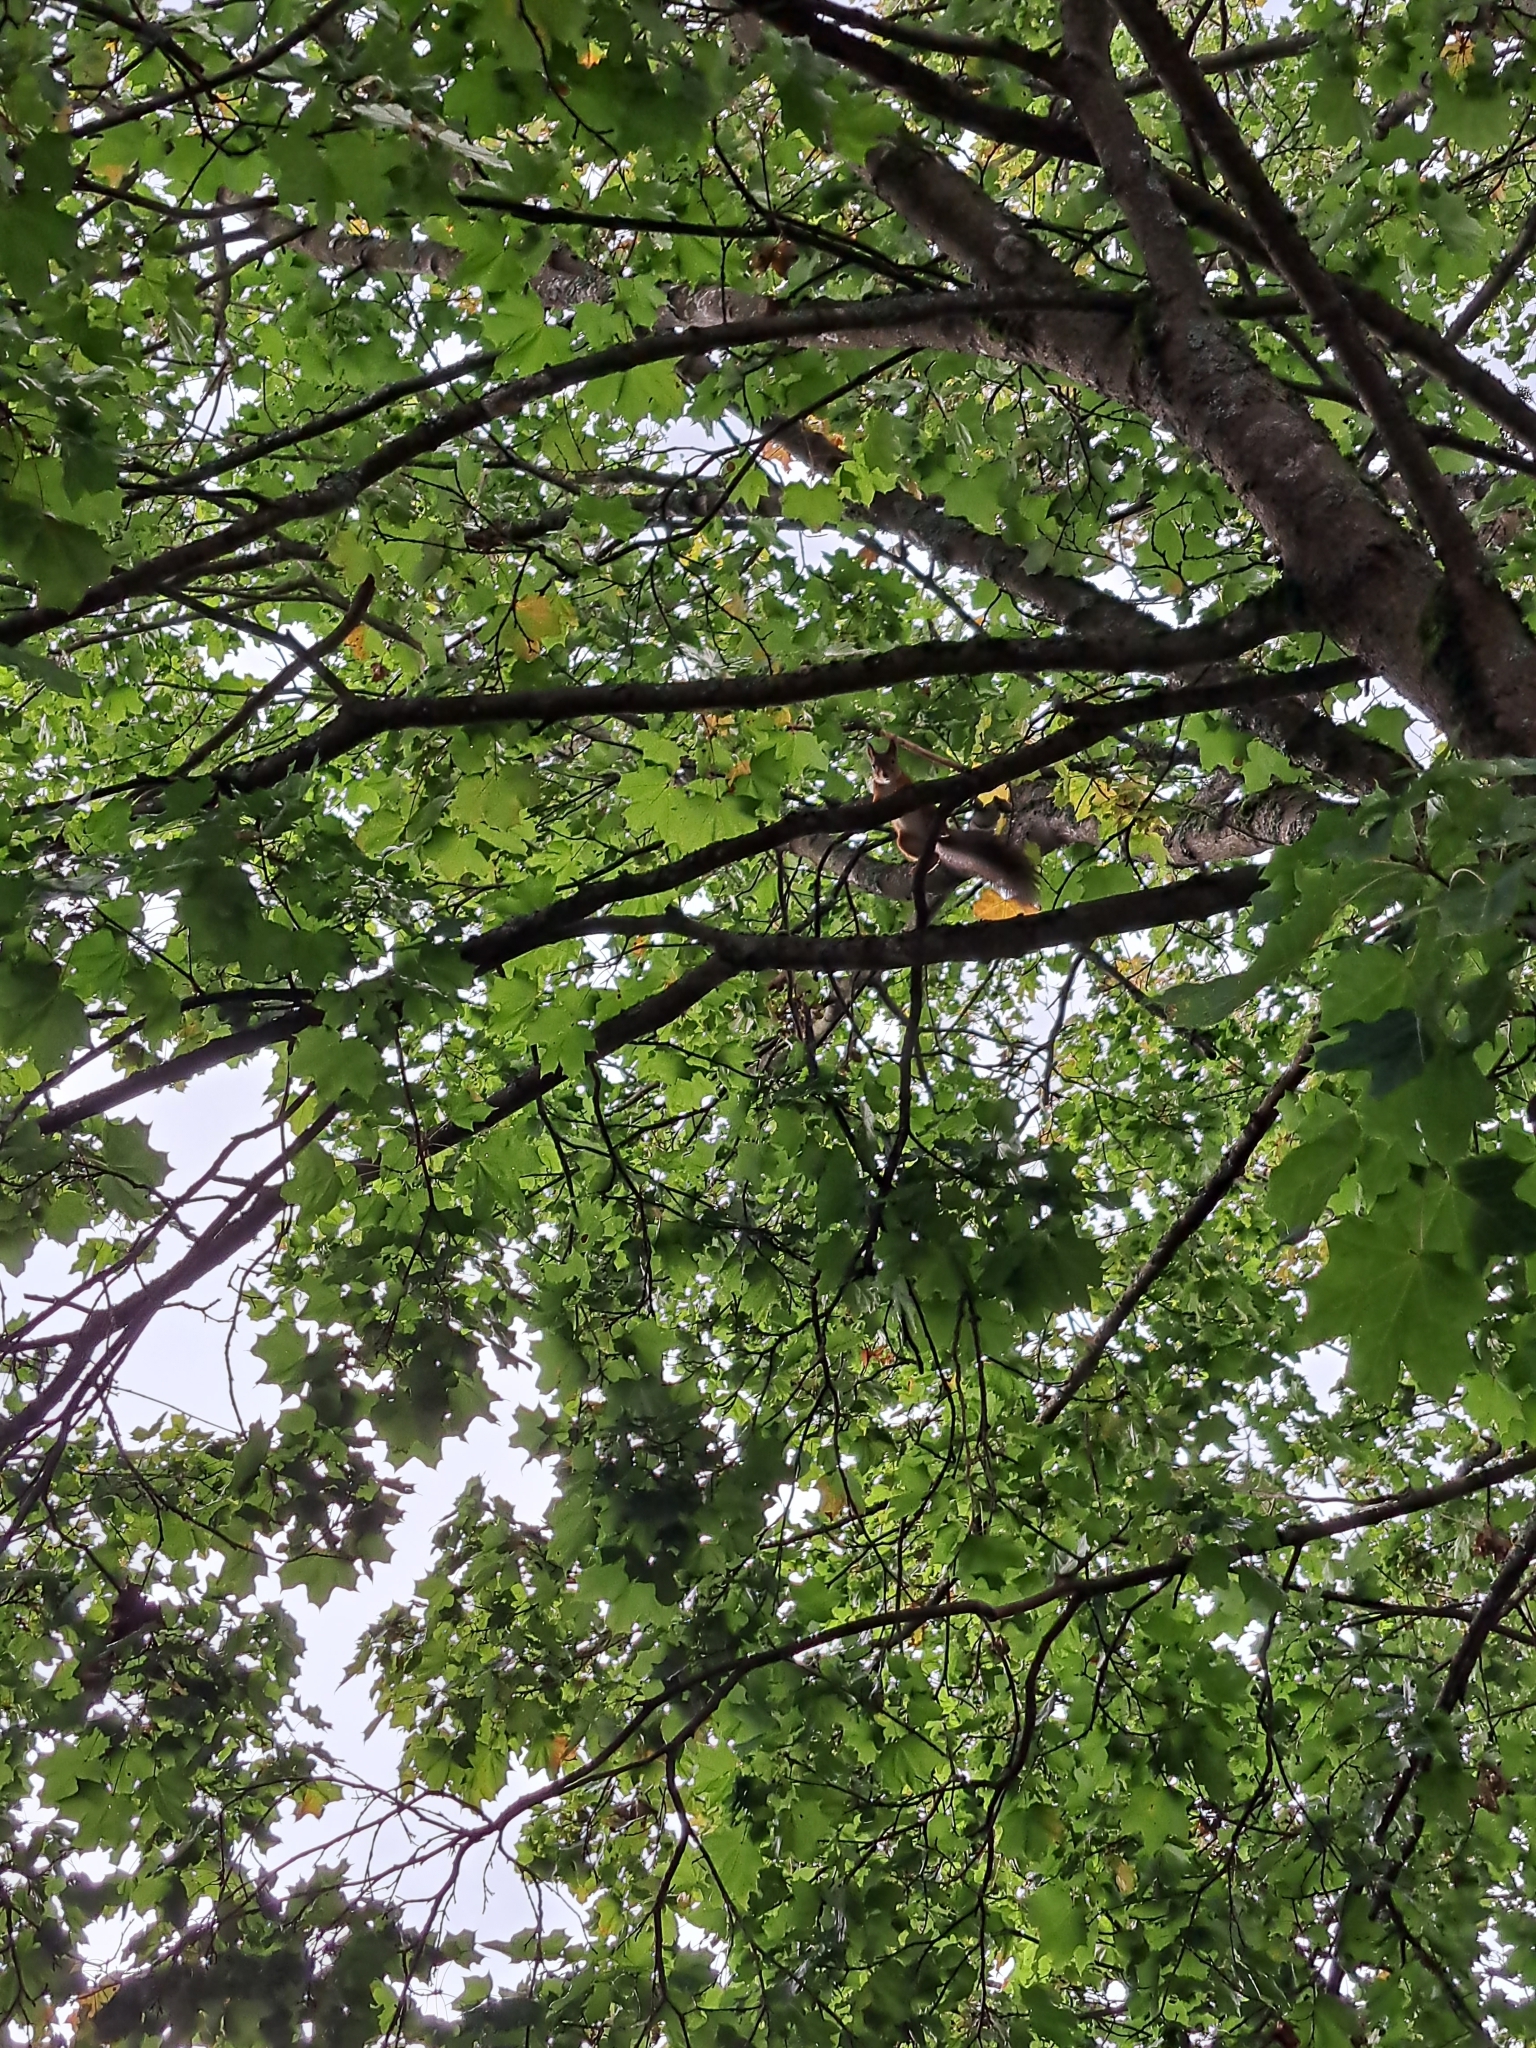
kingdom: Animalia
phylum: Chordata
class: Mammalia
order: Rodentia
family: Sciuridae
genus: Sciurus
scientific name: Sciurus vulgaris
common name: Eurasian red squirrel
